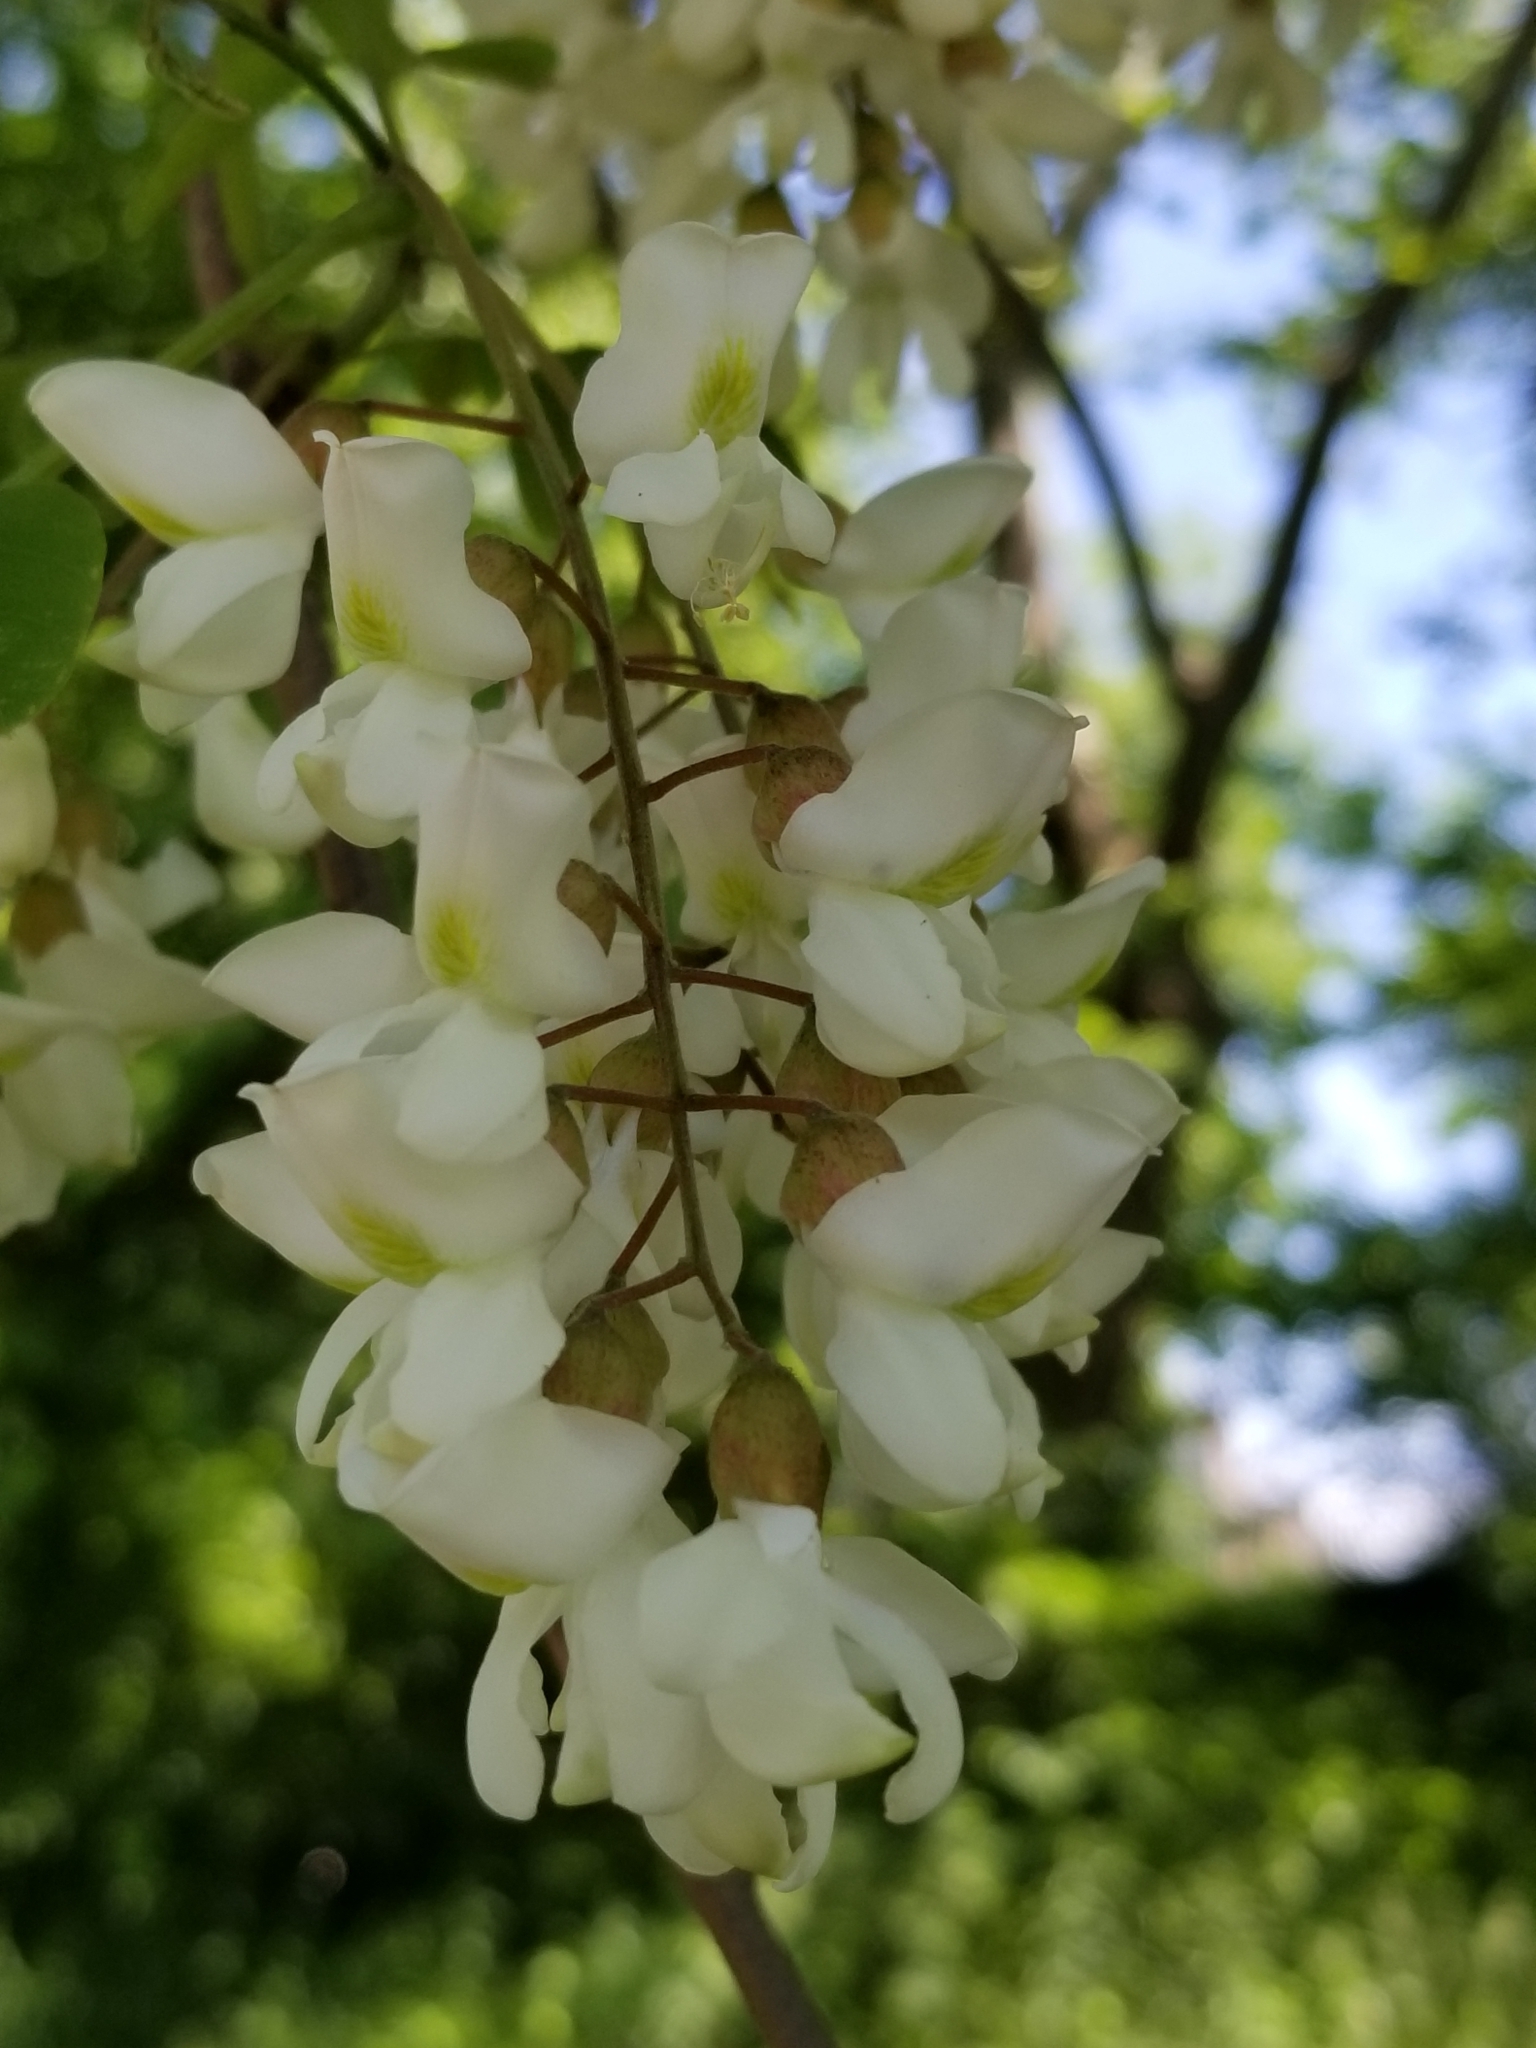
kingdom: Plantae
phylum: Tracheophyta
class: Magnoliopsida
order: Fabales
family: Fabaceae
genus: Robinia
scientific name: Robinia pseudoacacia
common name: Black locust
